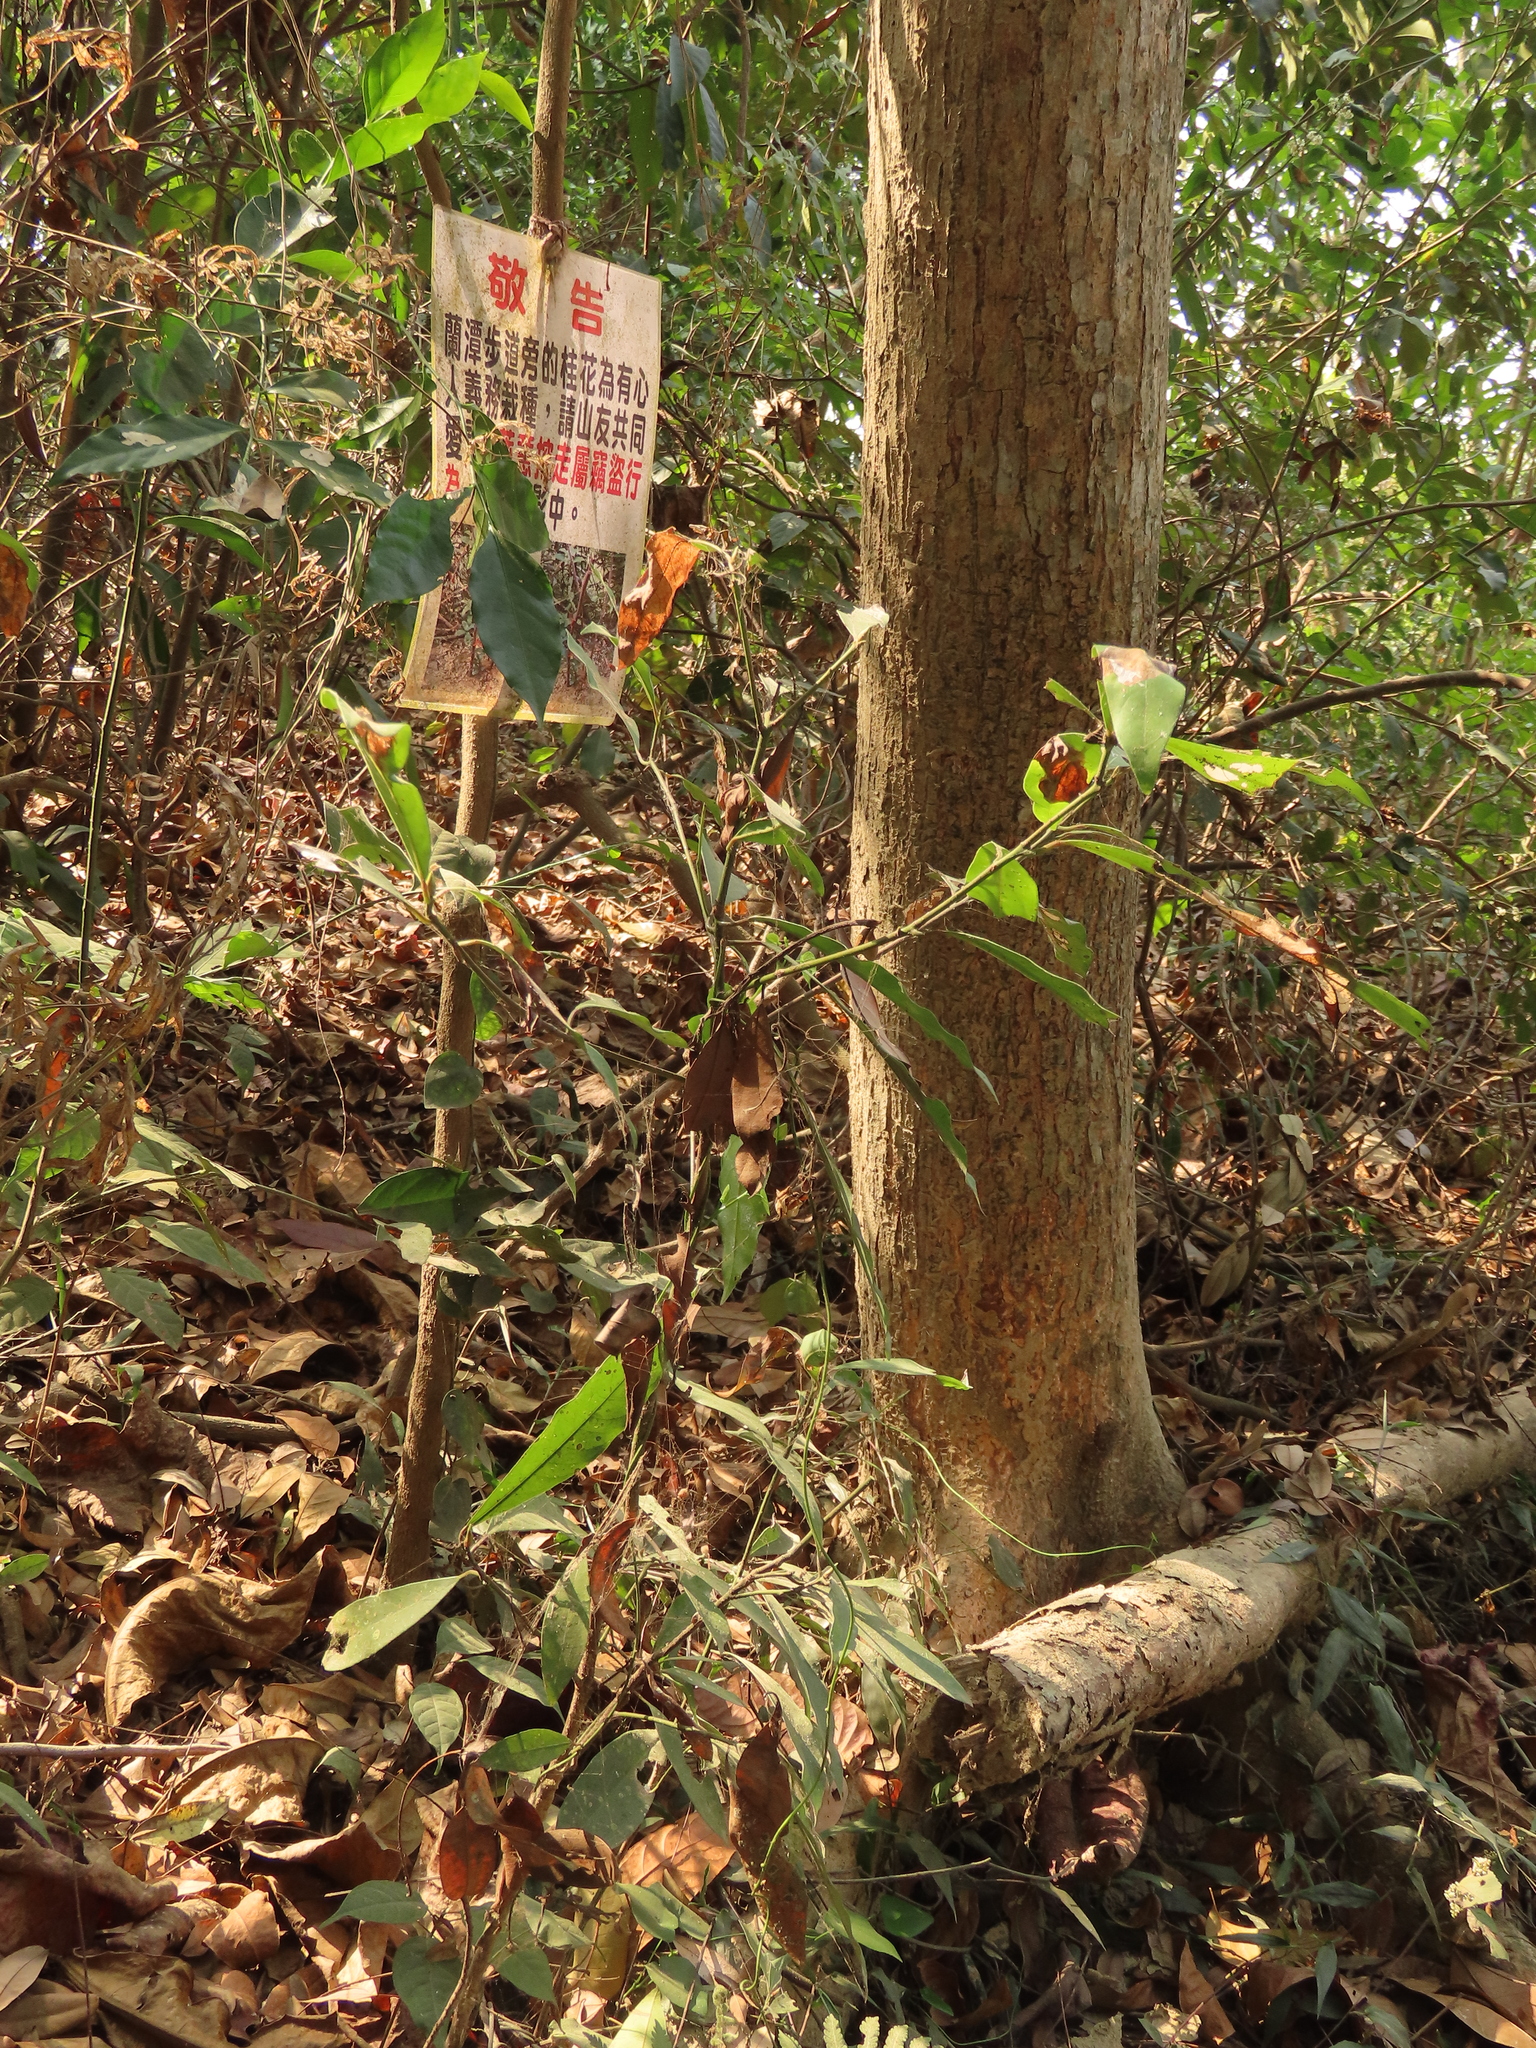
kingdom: Plantae
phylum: Tracheophyta
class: Magnoliopsida
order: Laurales
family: Lauraceae
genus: Machilus
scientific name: Machilus zuihoensis
